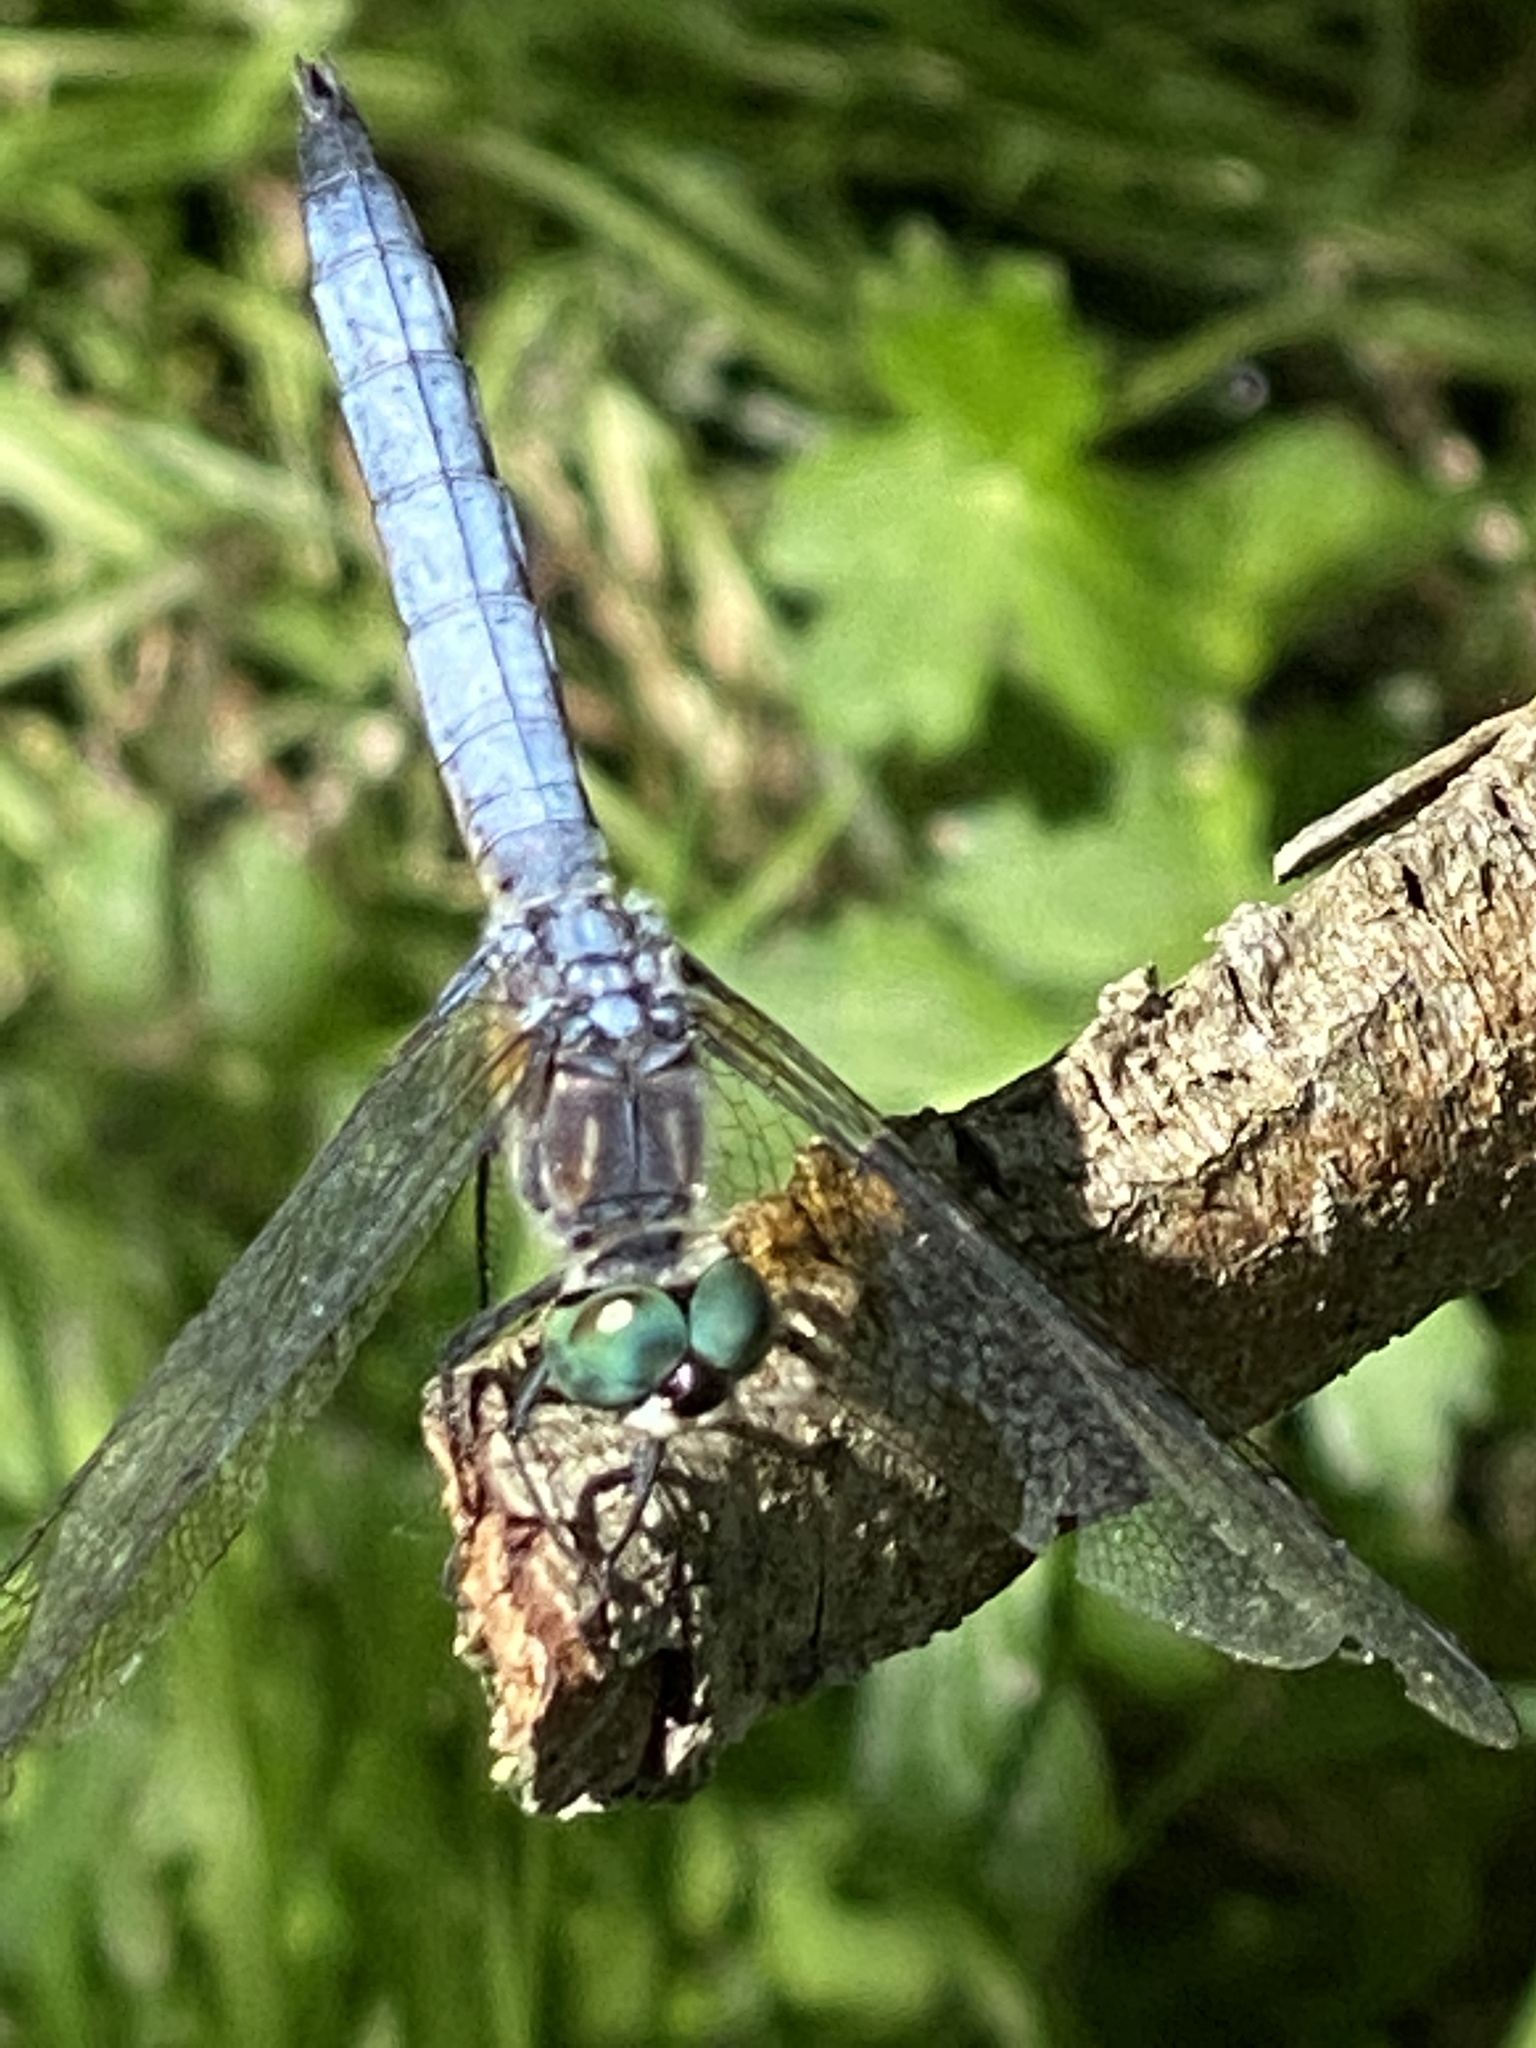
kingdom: Animalia
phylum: Arthropoda
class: Insecta
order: Odonata
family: Libellulidae
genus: Pachydiplax
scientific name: Pachydiplax longipennis
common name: Blue dasher
